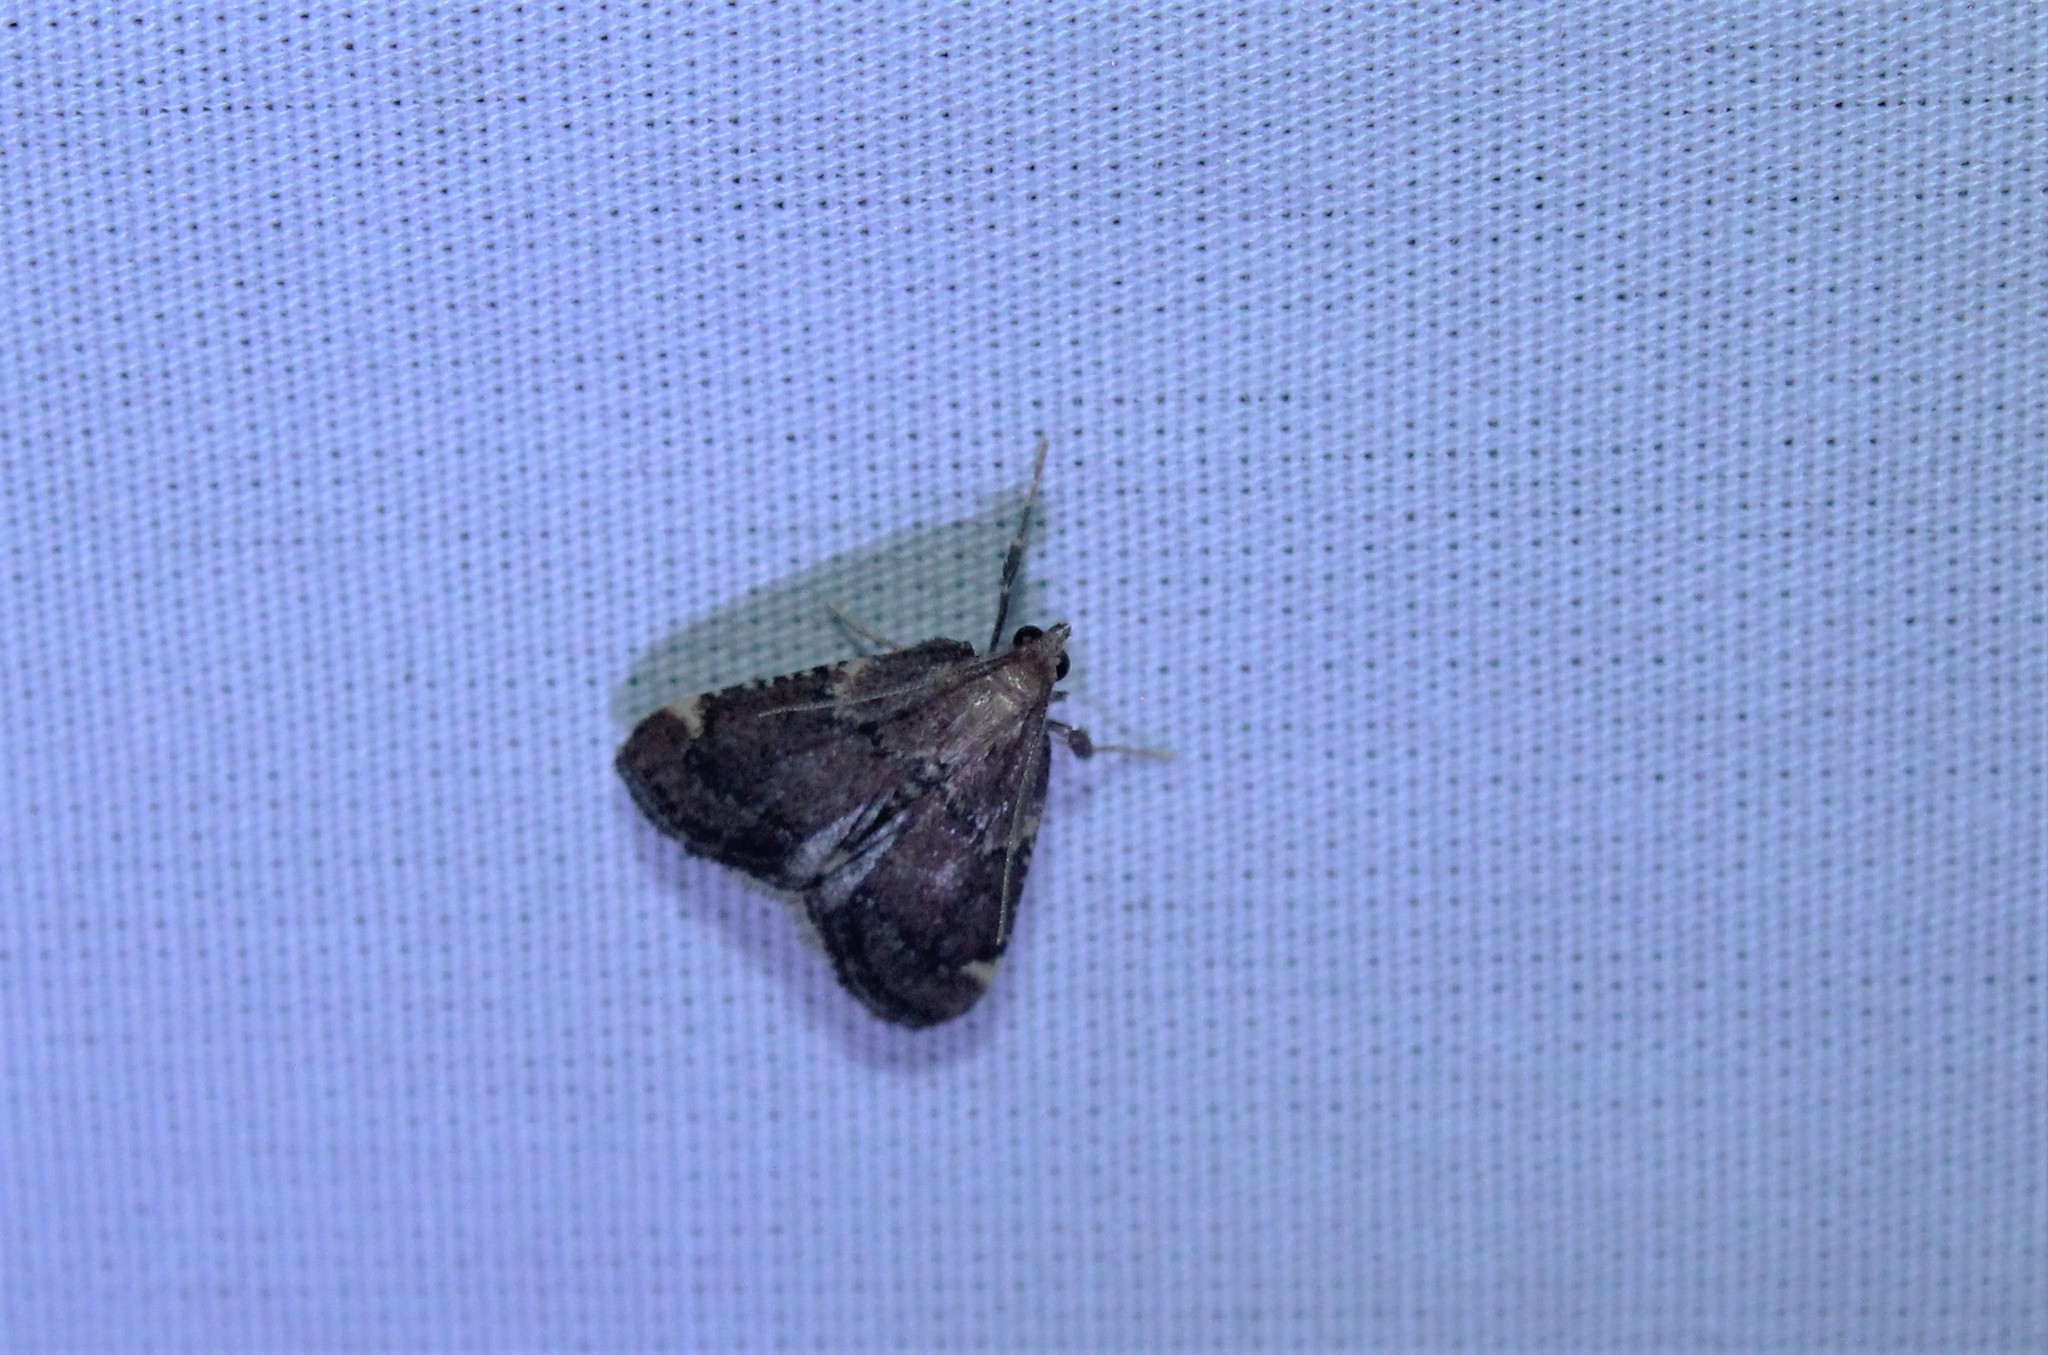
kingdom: Animalia
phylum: Arthropoda
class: Insecta
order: Lepidoptera
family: Pyralidae
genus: Hypsopygia
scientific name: Hypsopygia intermedialis
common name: Red-shawled moth
